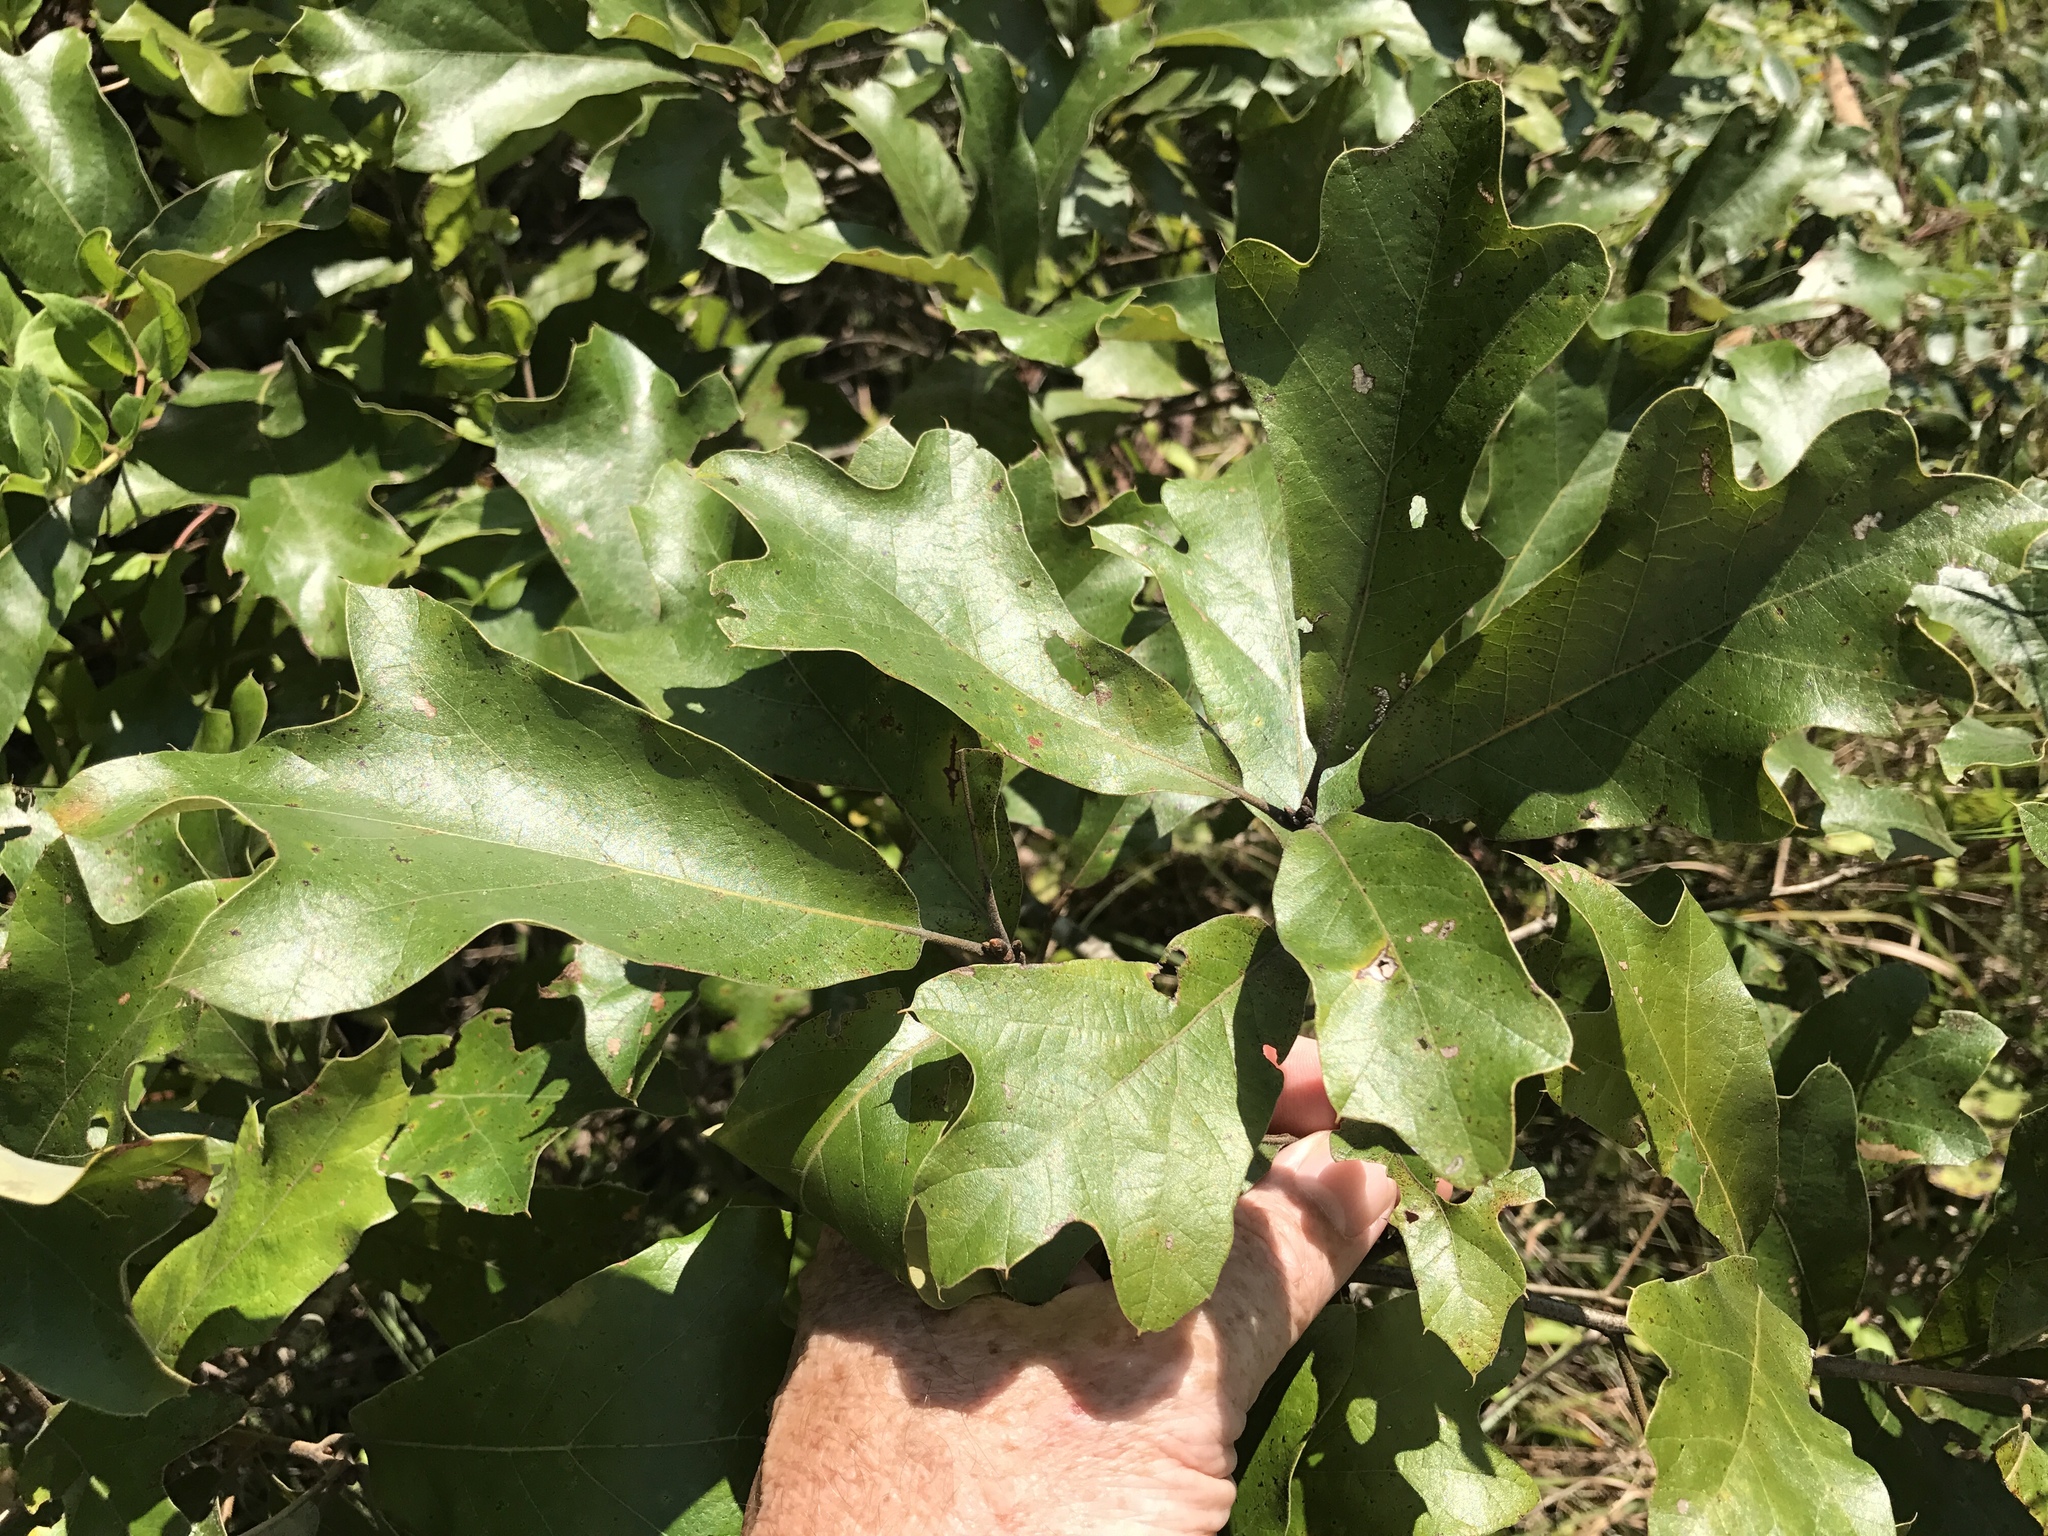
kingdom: Plantae
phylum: Tracheophyta
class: Magnoliopsida
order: Fagales
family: Fagaceae
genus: Quercus
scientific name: Quercus falcata
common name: Southern red oak
